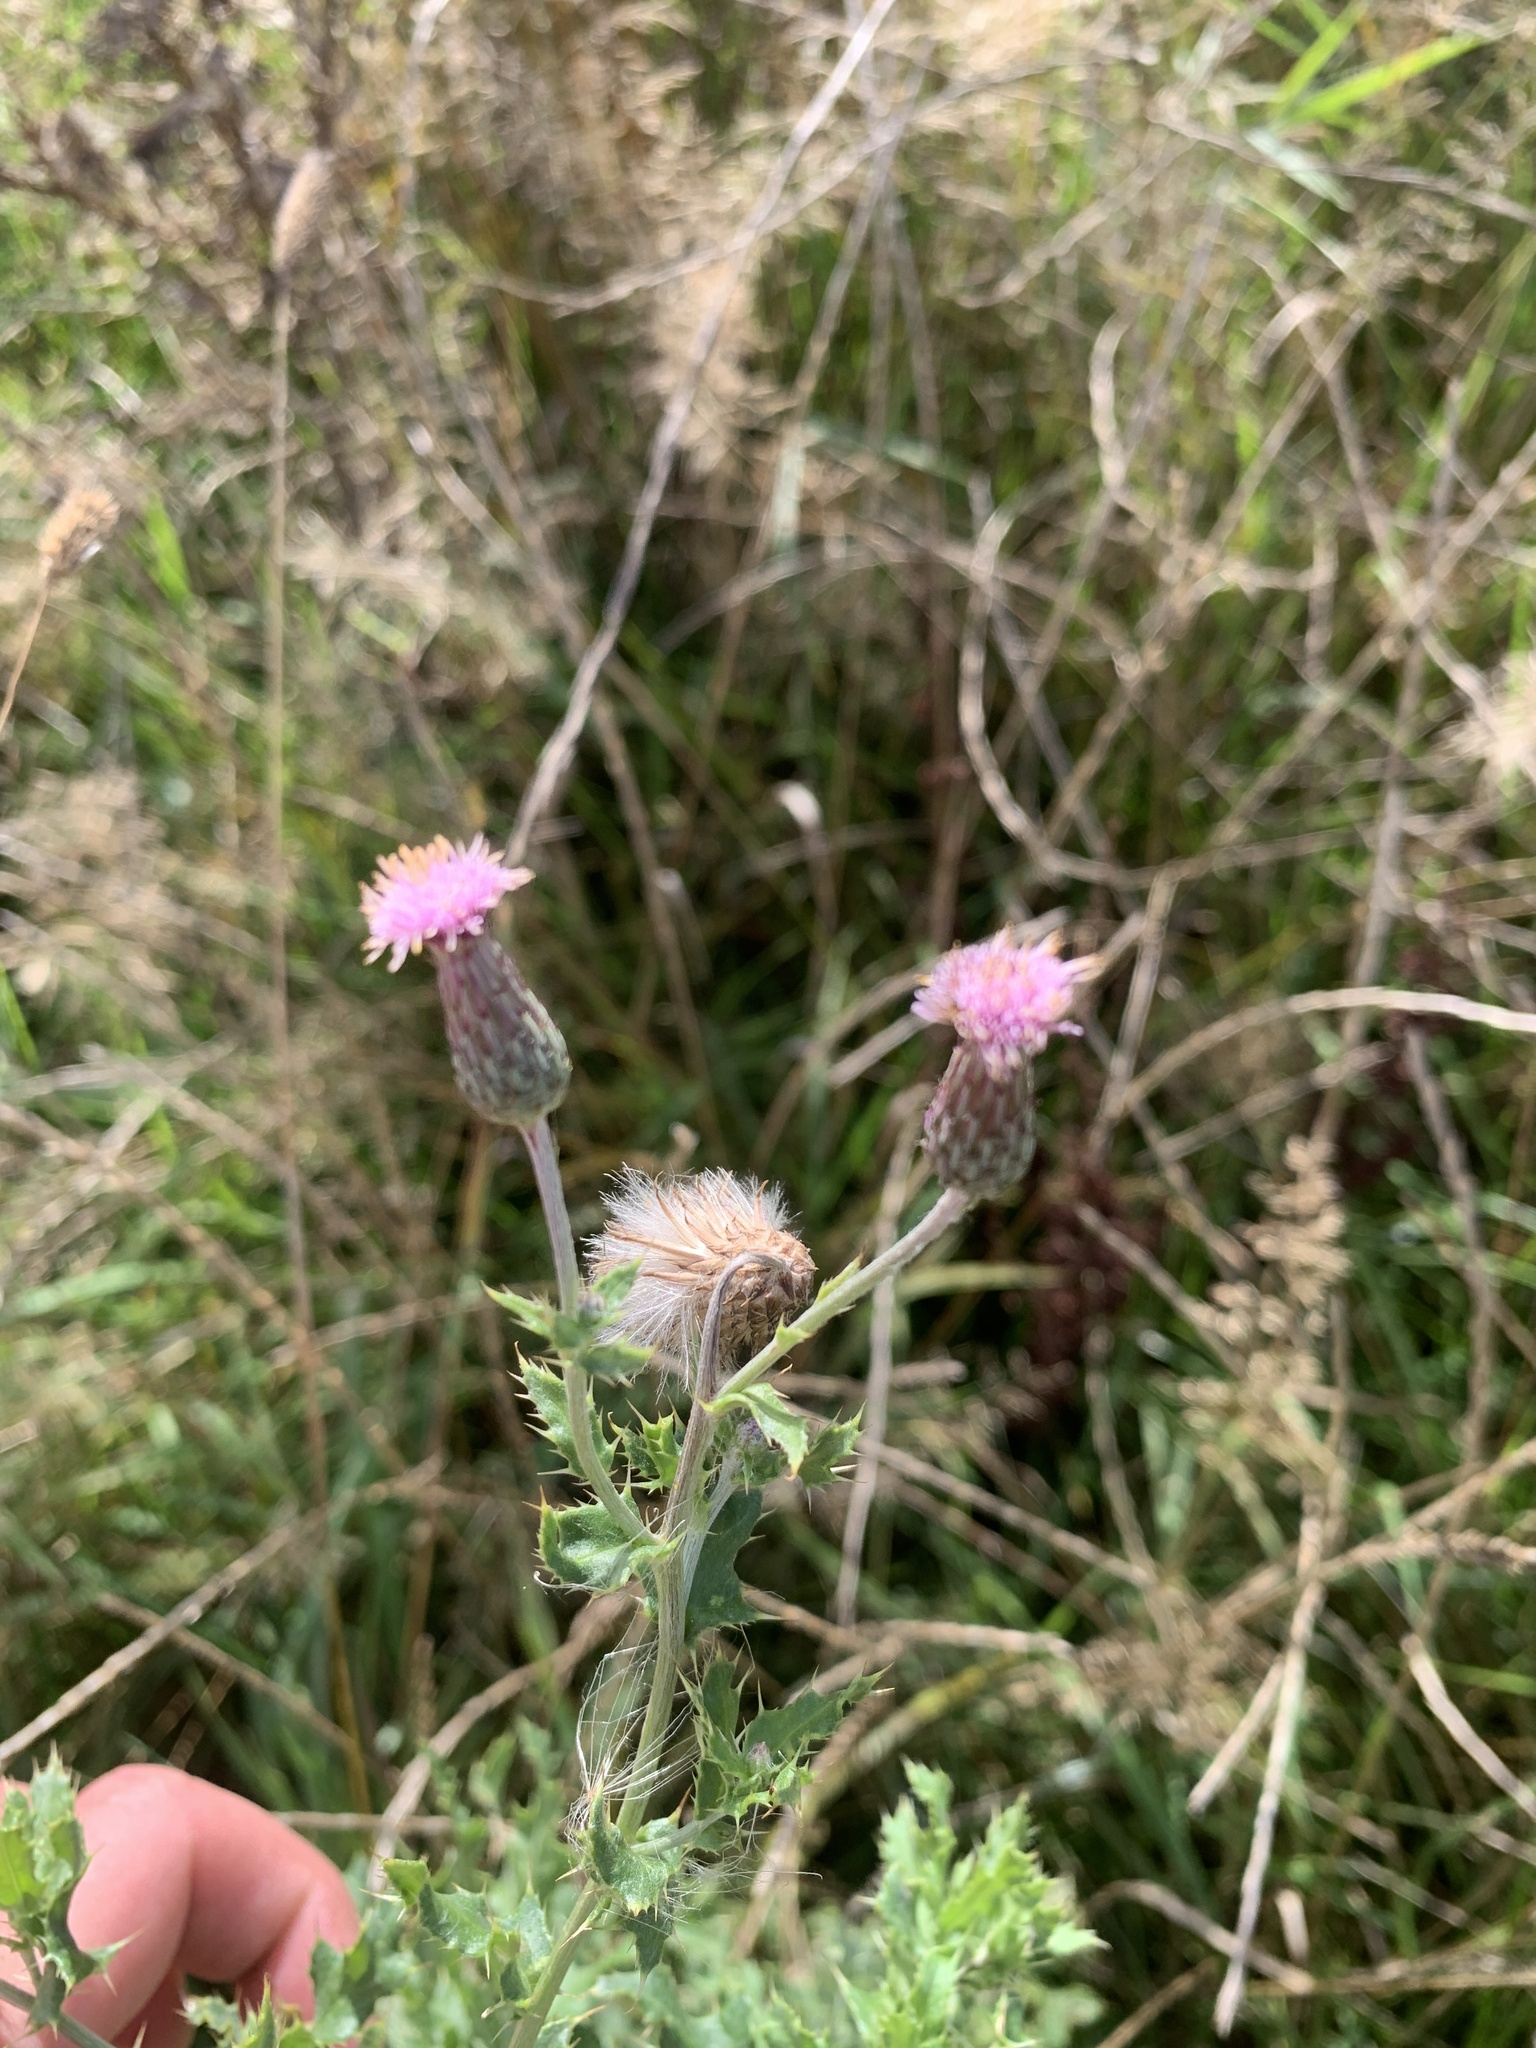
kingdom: Plantae
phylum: Tracheophyta
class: Magnoliopsida
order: Asterales
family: Asteraceae
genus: Cirsium
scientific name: Cirsium arvense
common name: Creeping thistle
